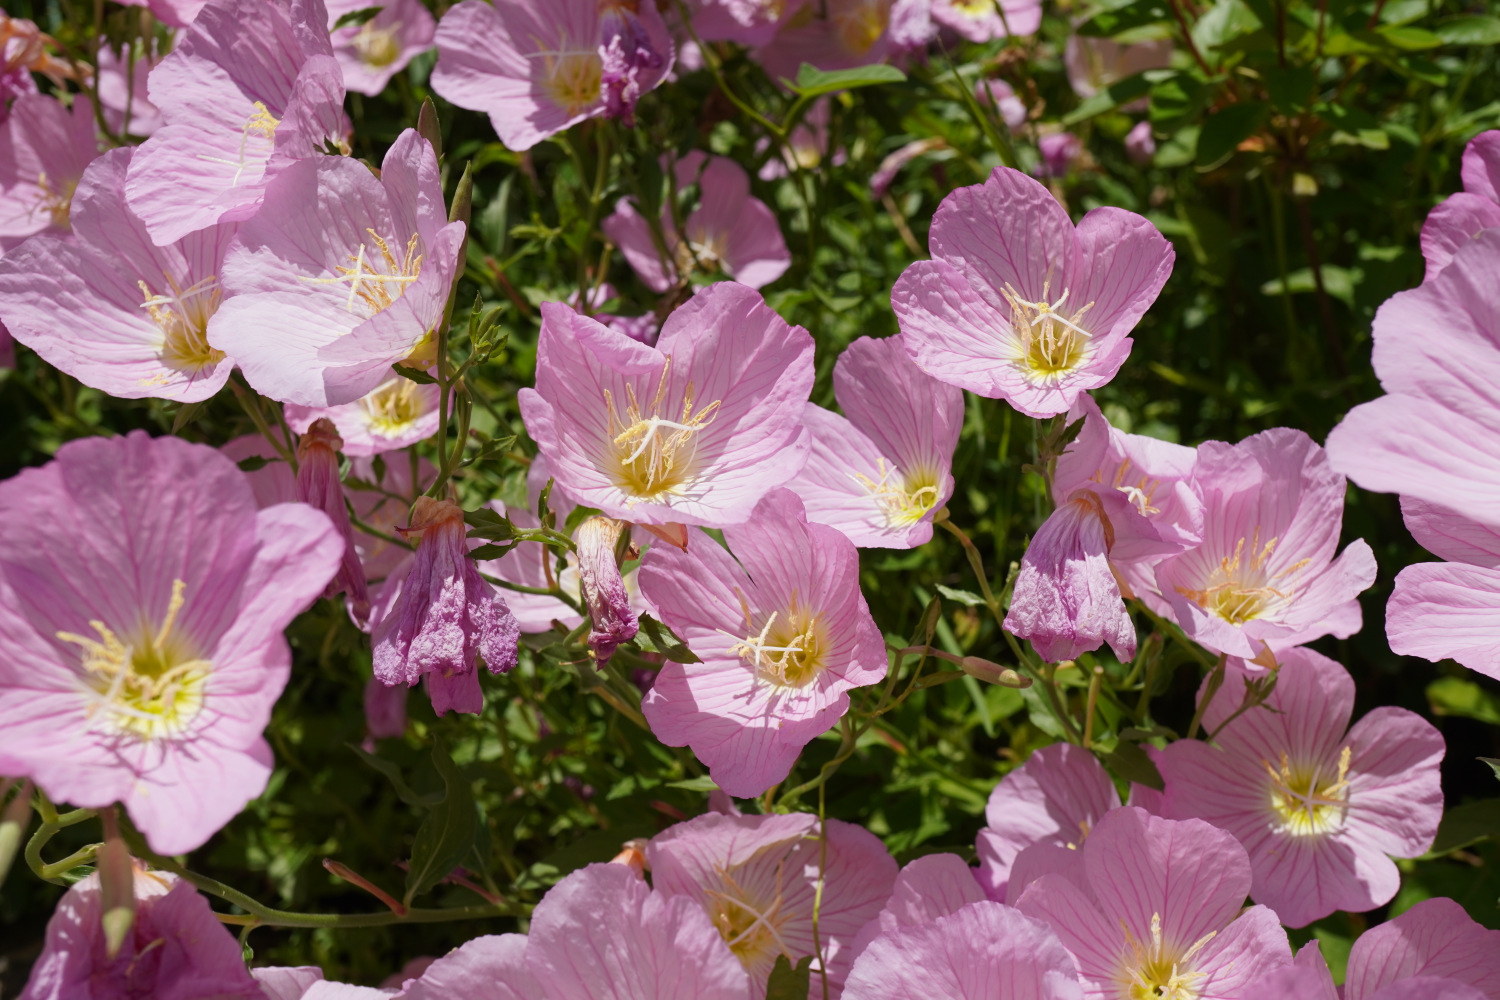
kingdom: Plantae
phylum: Tracheophyta
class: Magnoliopsida
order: Myrtales
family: Onagraceae
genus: Oenothera
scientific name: Oenothera speciosa
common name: White evening-primrose
